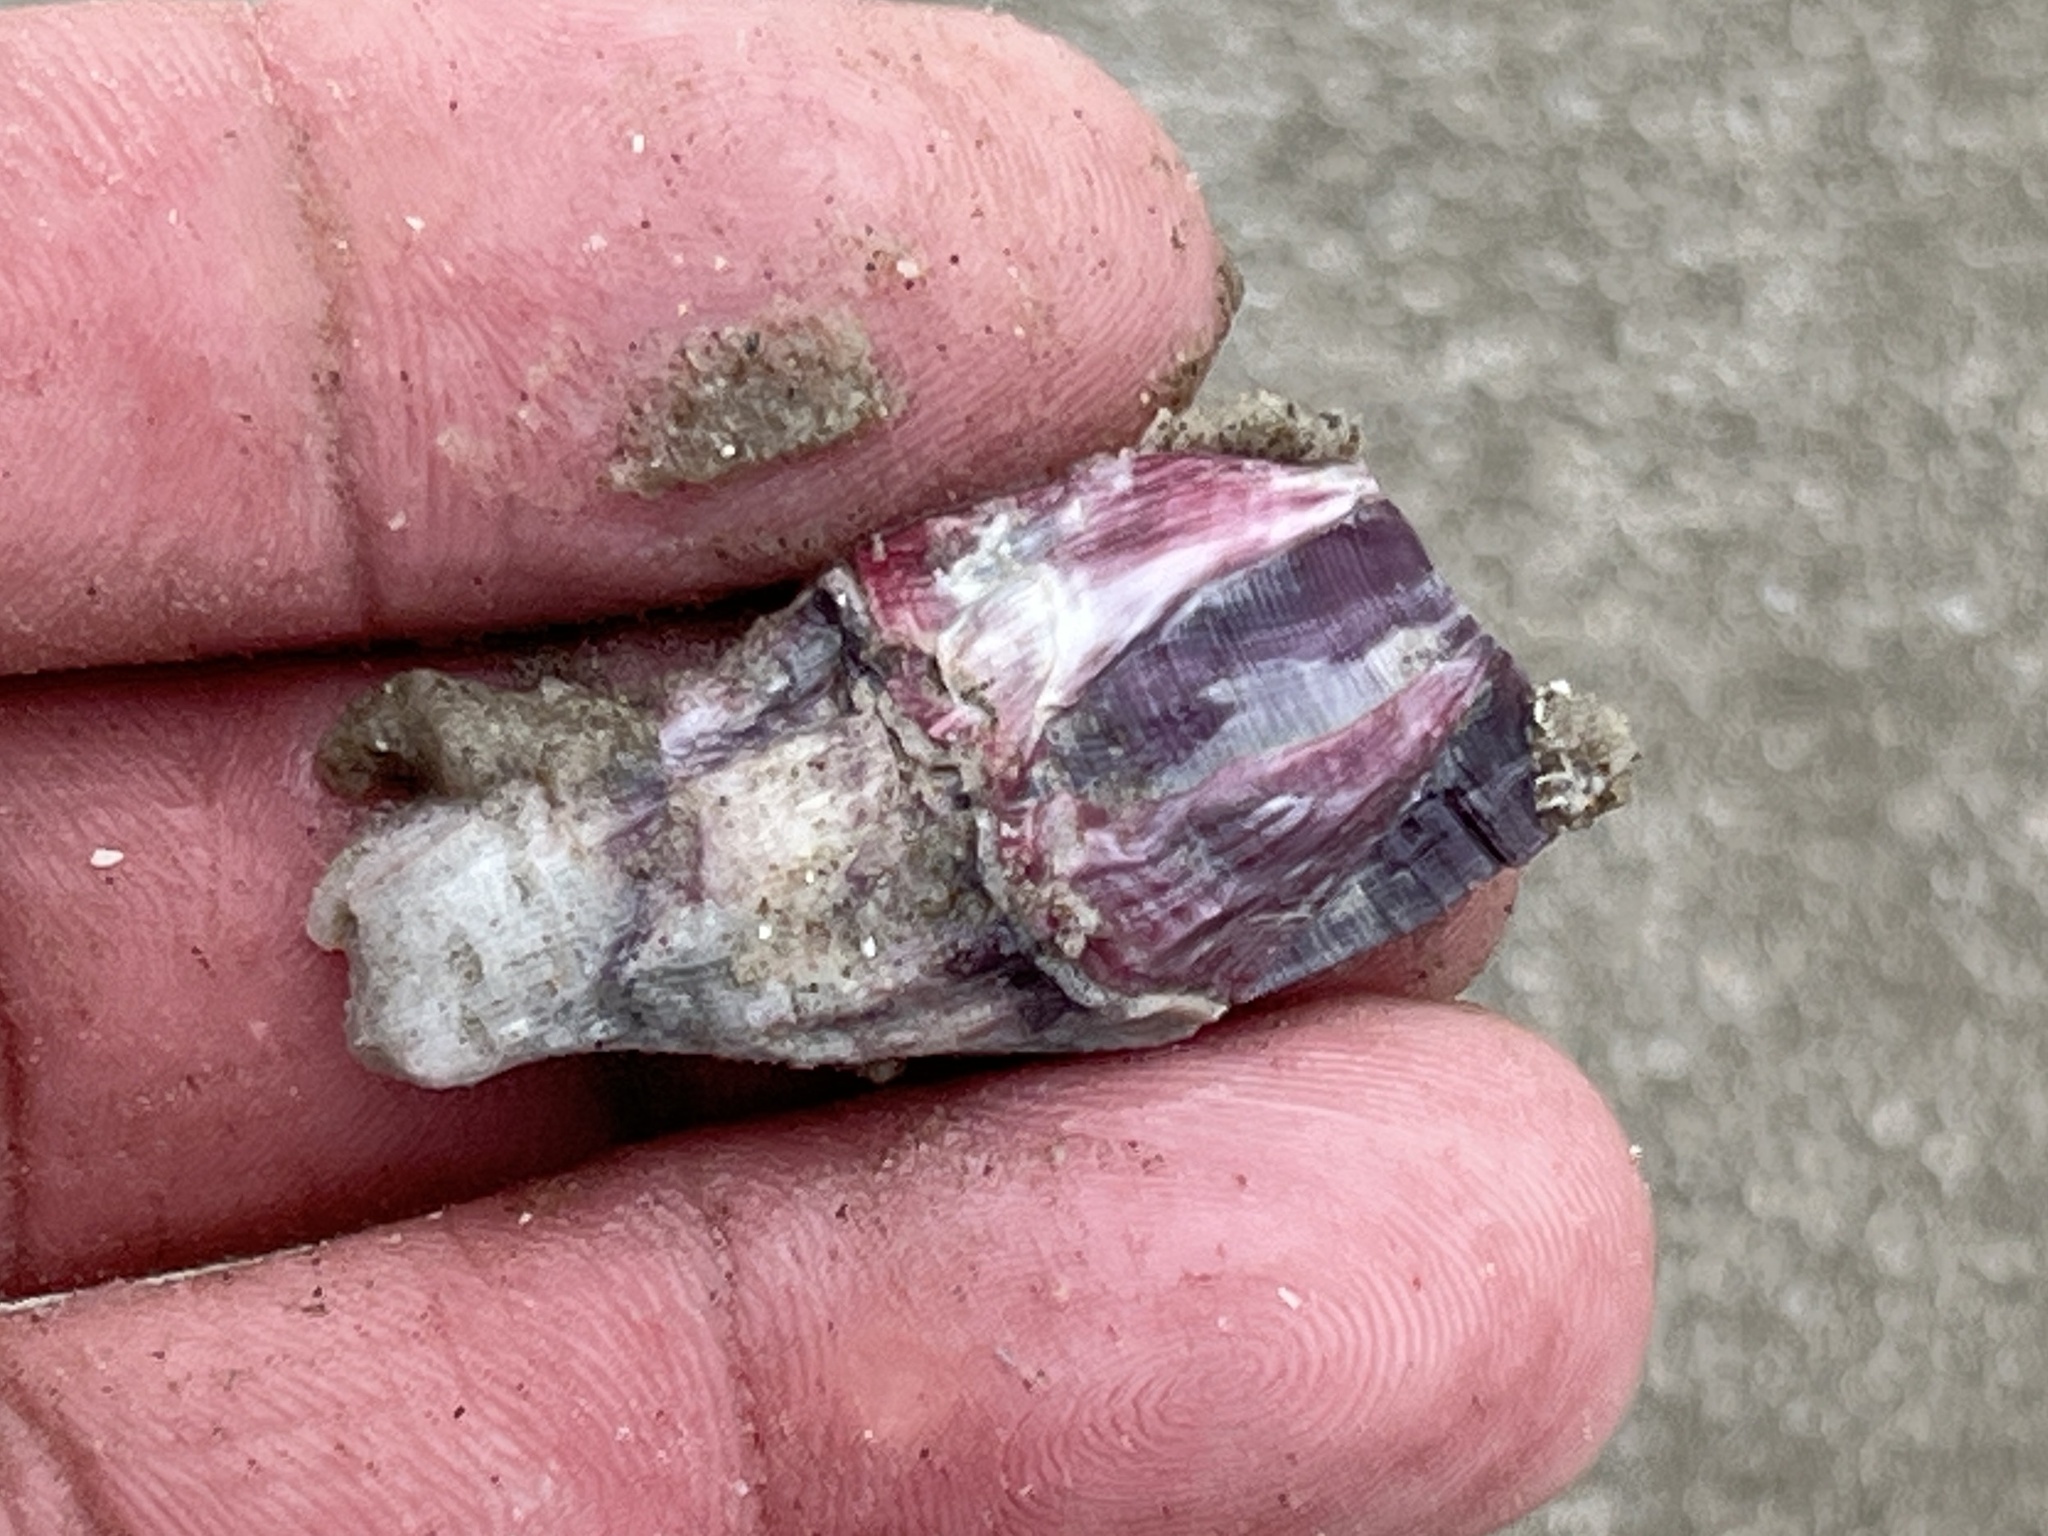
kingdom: Animalia
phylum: Arthropoda
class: Maxillopoda
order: Sessilia
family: Balanidae
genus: Megabalanus
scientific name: Megabalanus tintinnabulum
